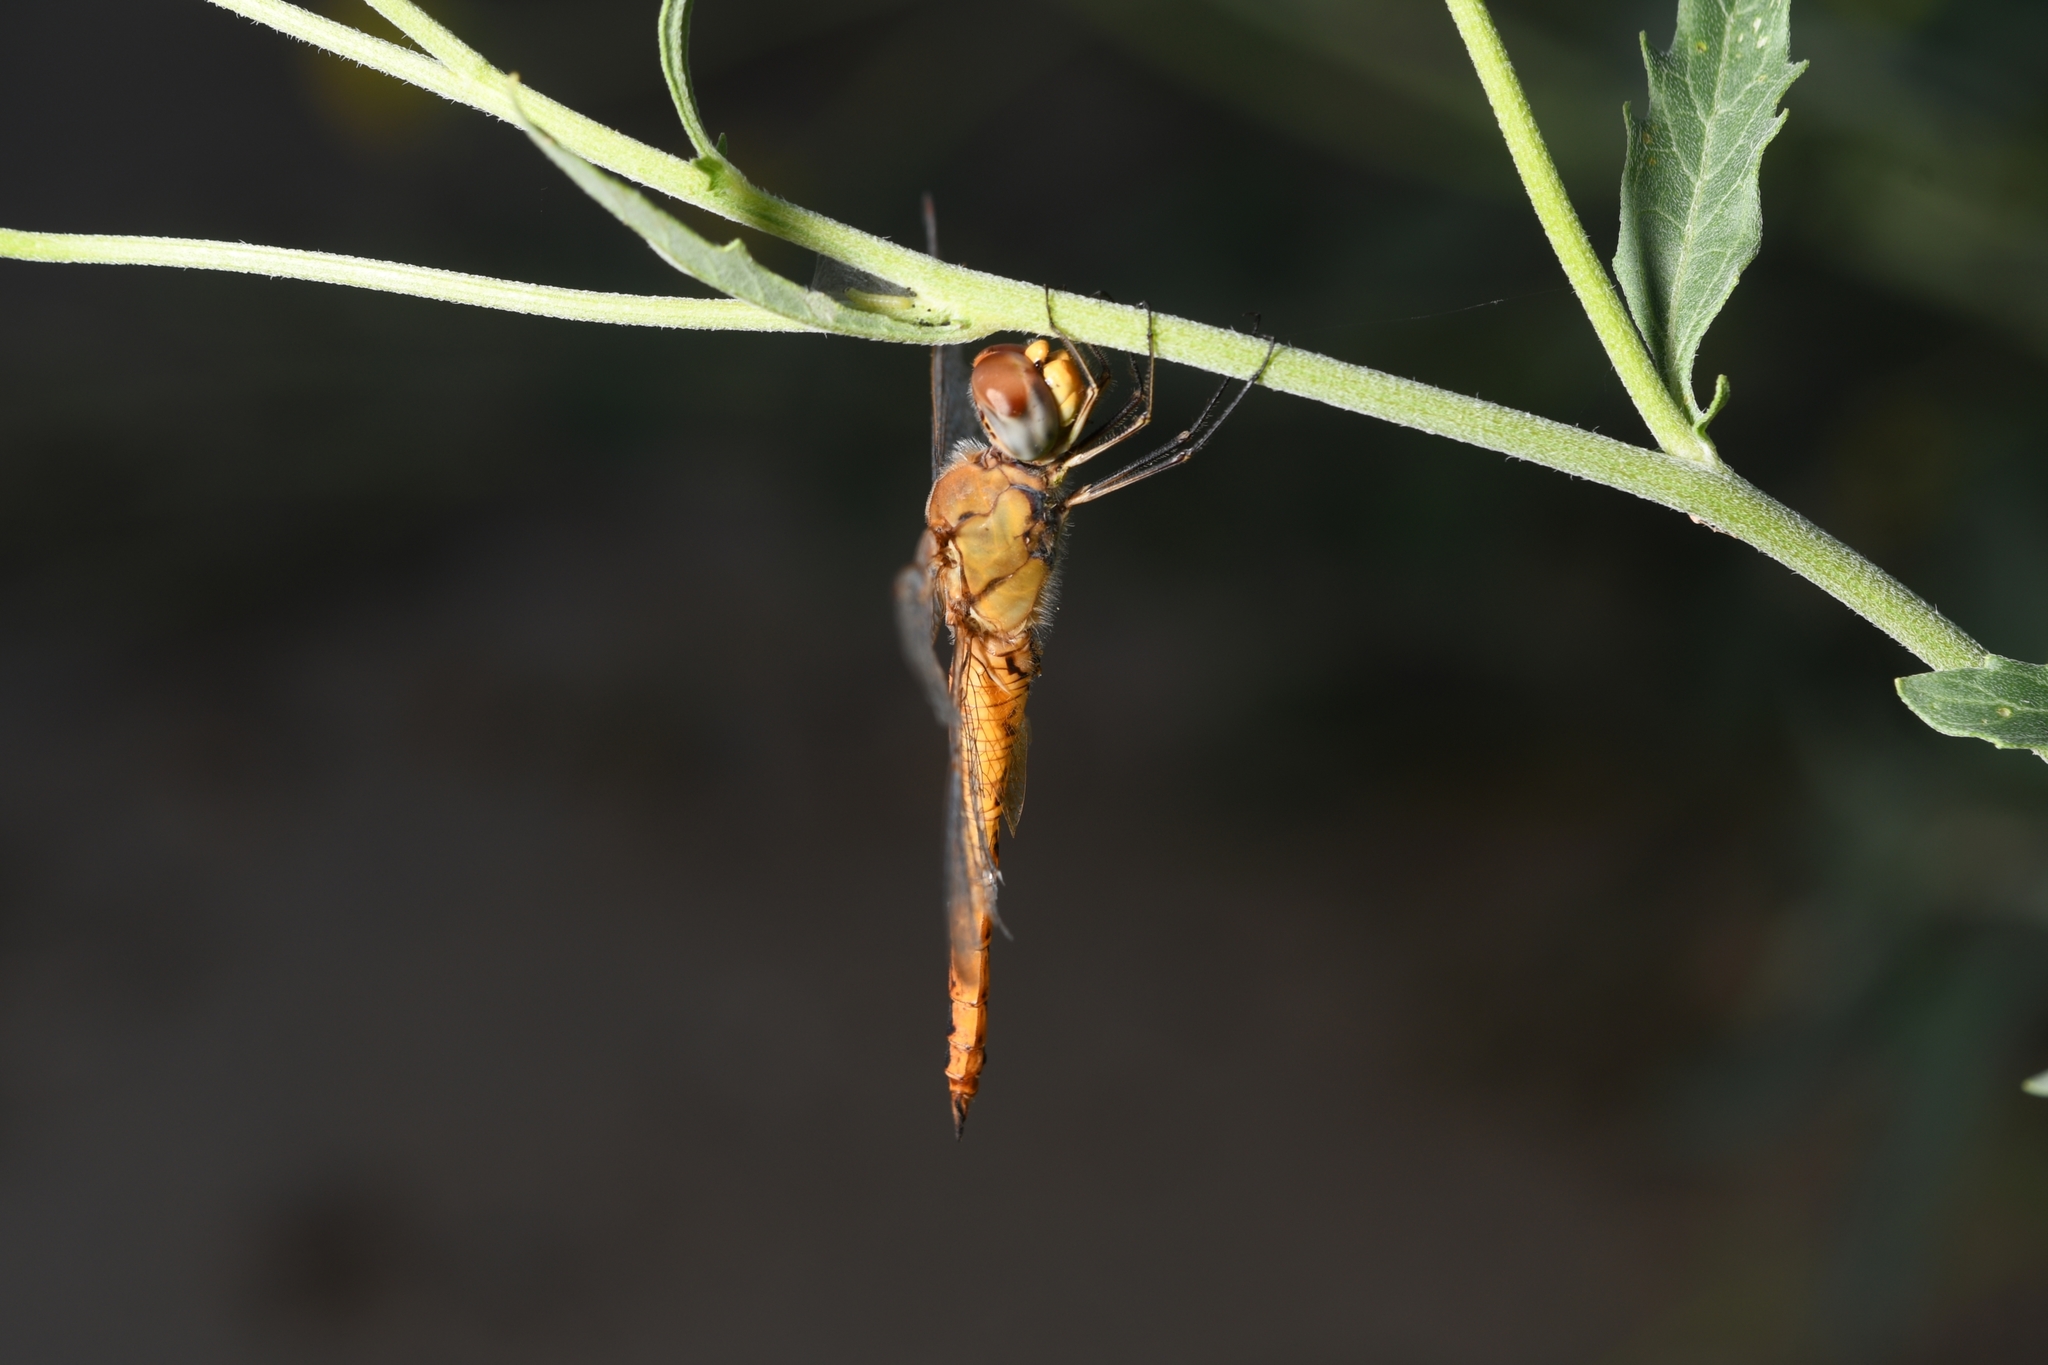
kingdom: Animalia
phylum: Arthropoda
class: Insecta
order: Odonata
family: Libellulidae
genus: Pantala
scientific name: Pantala flavescens
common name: Wandering glider
